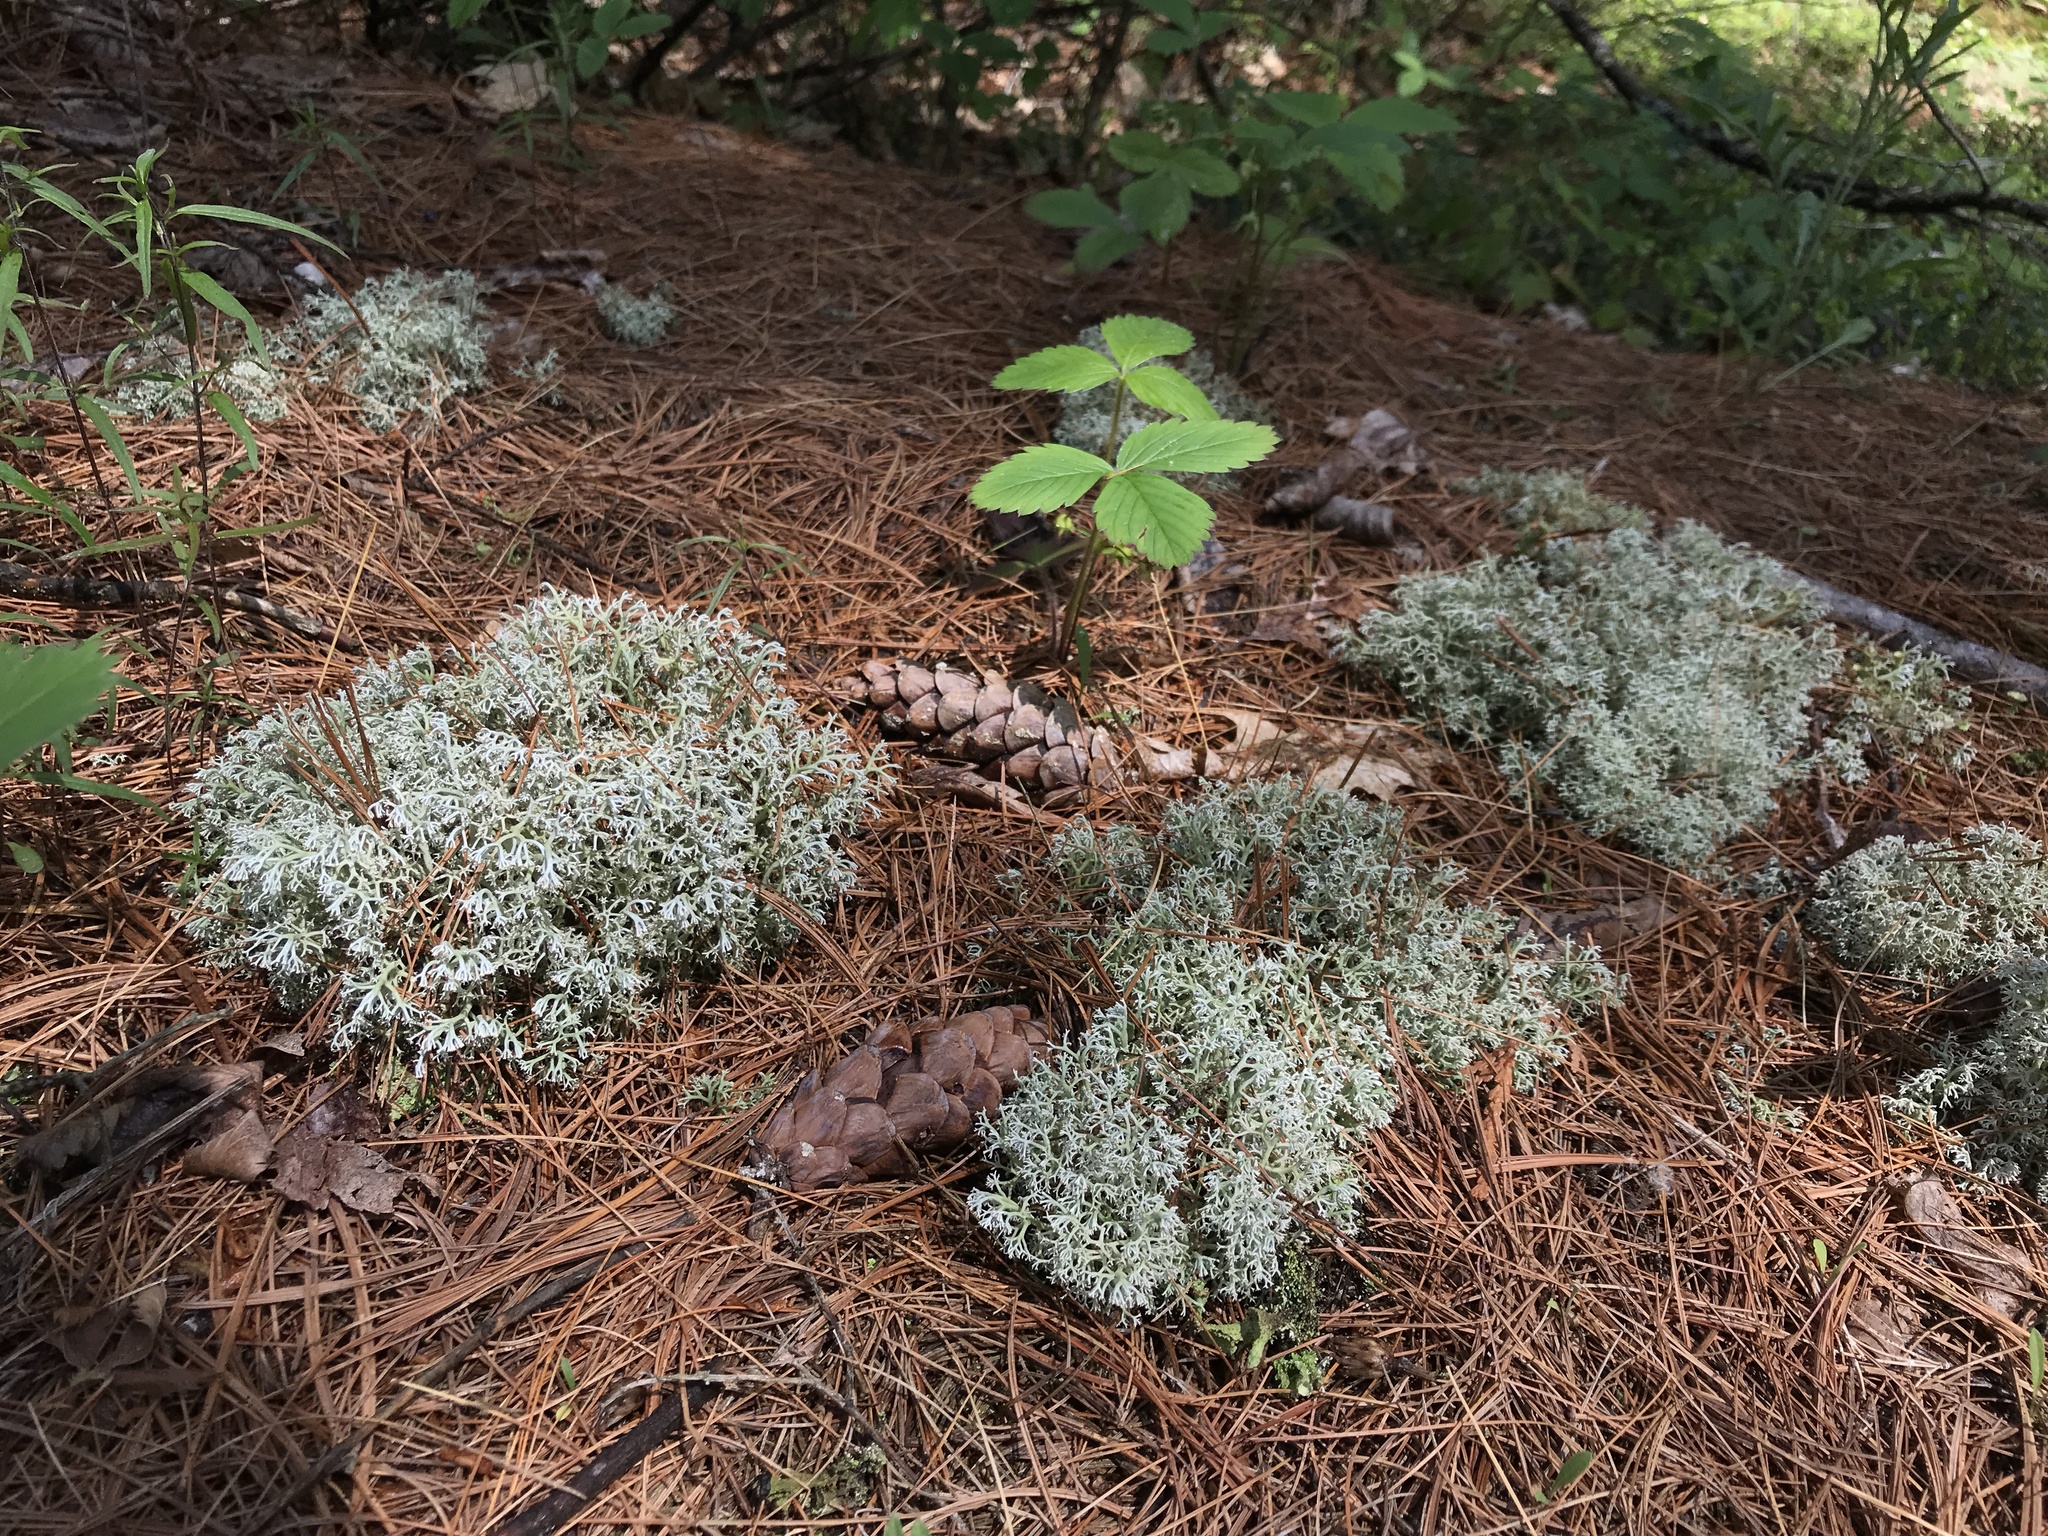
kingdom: Fungi
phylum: Ascomycota
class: Lecanoromycetes
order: Lecanorales
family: Cladoniaceae
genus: Cladonia
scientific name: Cladonia rangiferina
